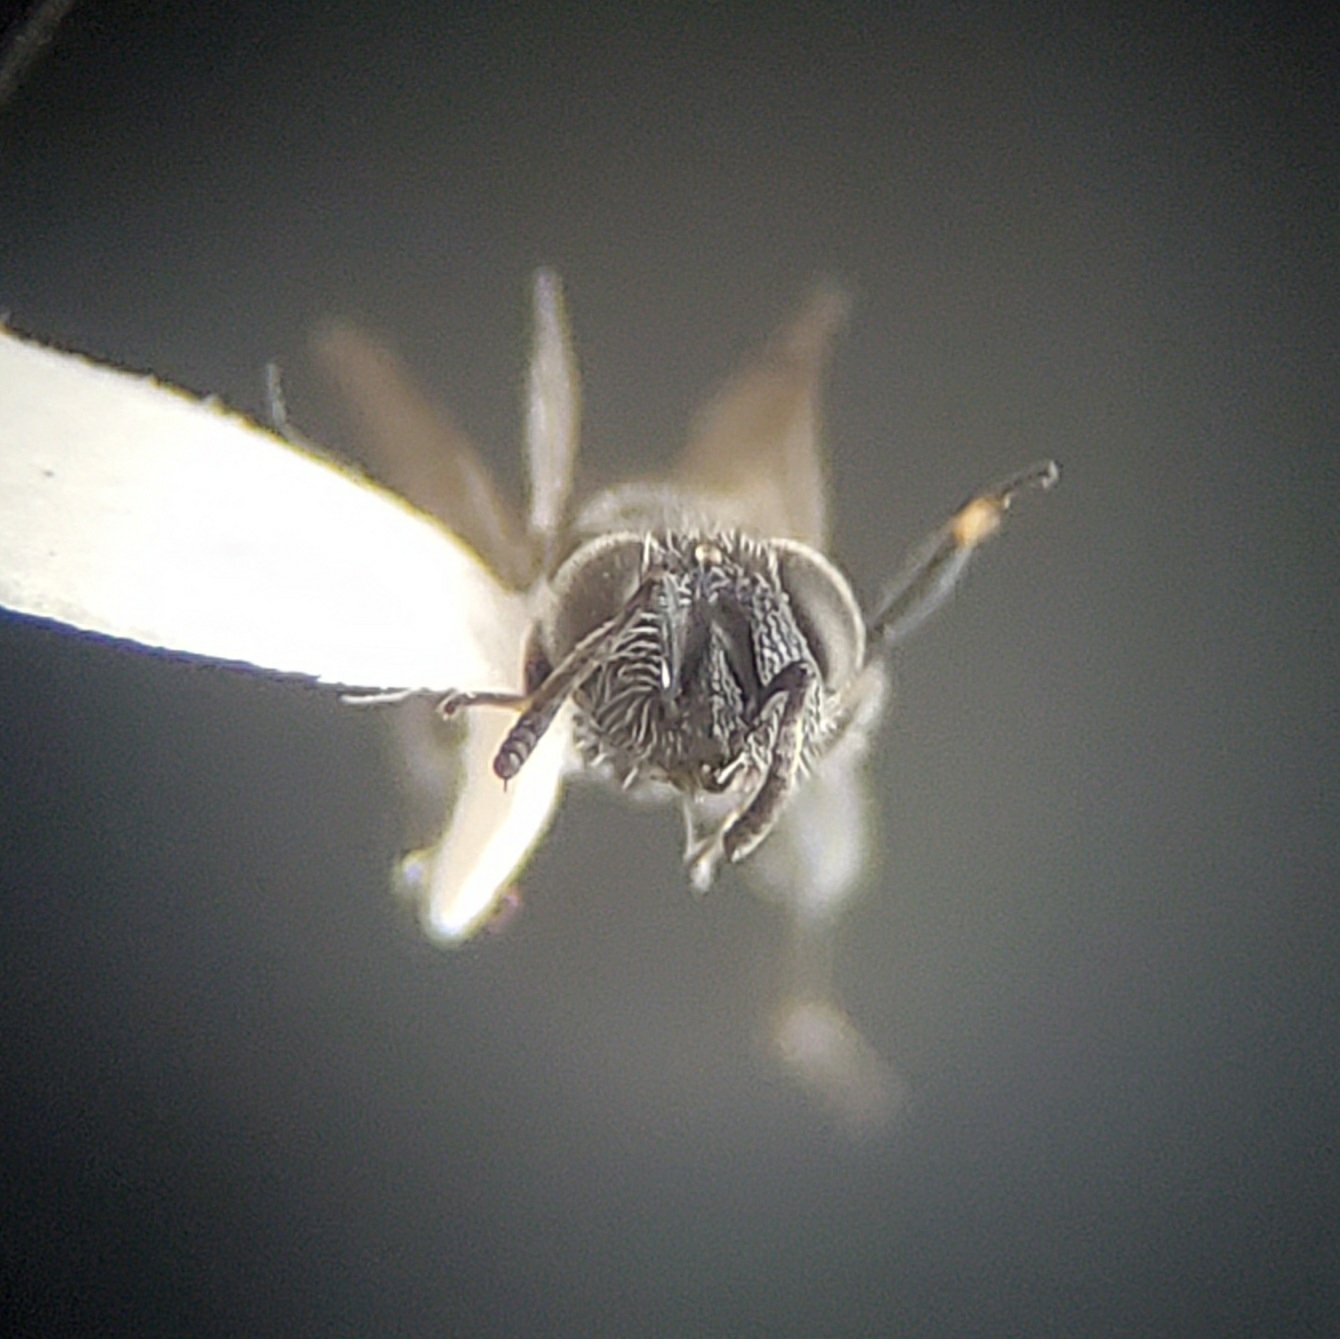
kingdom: Animalia
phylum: Arthropoda
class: Insecta
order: Hymenoptera
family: Pteromalidae
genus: Chalcedectus
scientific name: Chalcedectus caelatus
